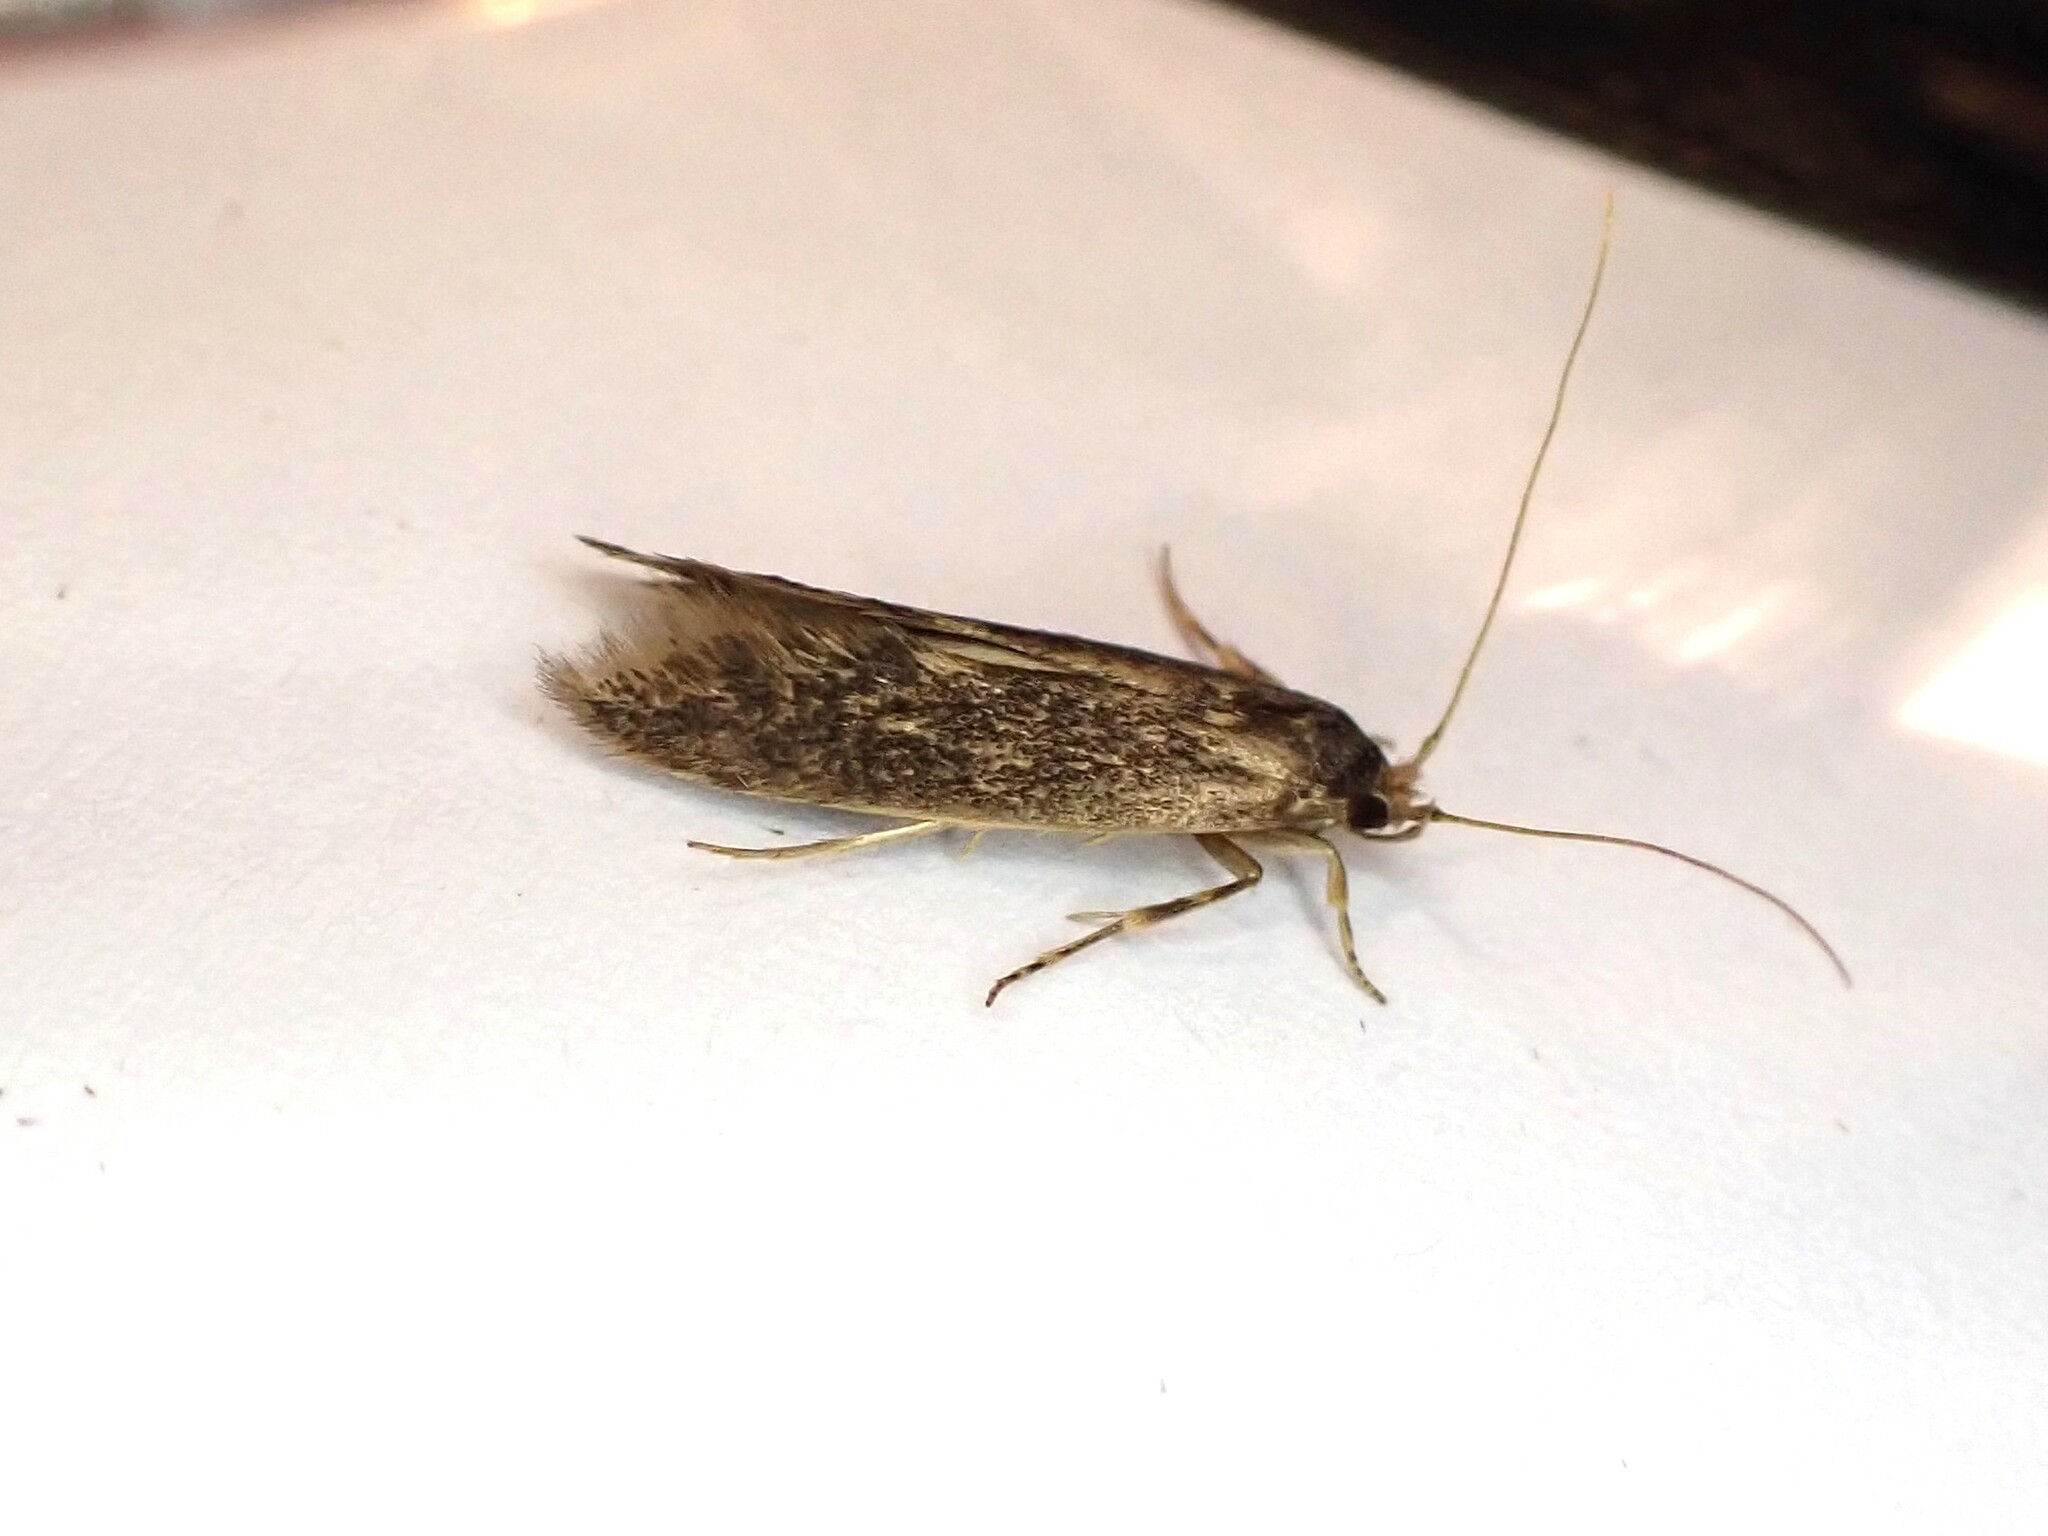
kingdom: Animalia
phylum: Arthropoda
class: Insecta
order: Lepidoptera
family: Tineidae
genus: Opogona
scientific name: Opogona omoscopa
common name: Moth
